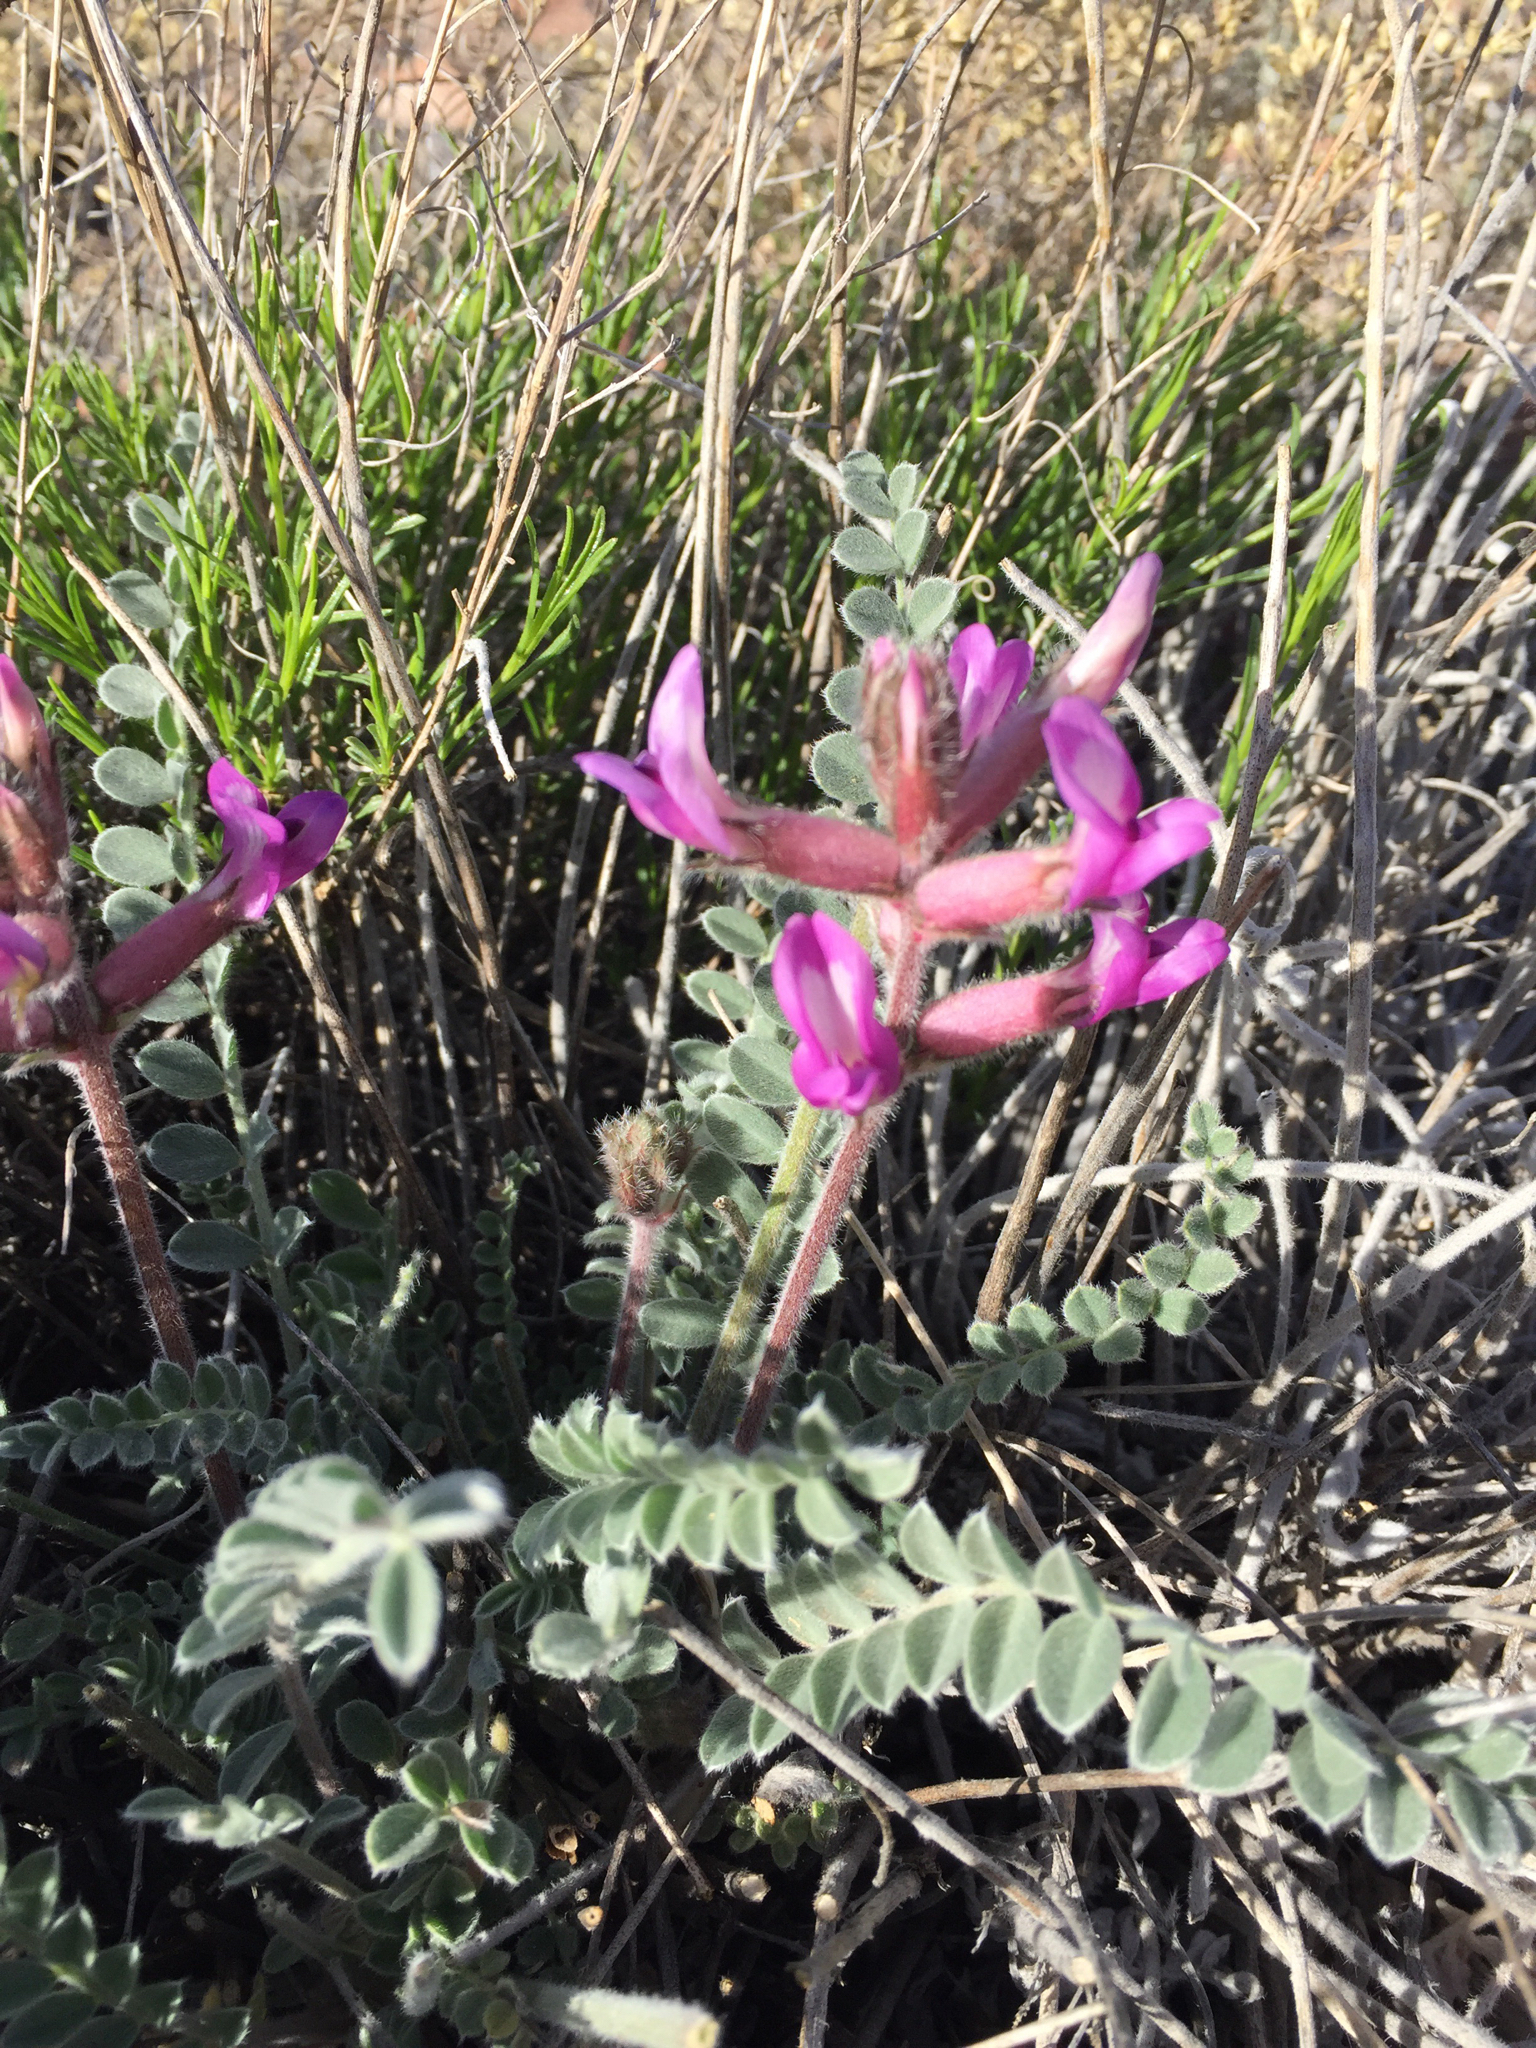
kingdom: Plantae
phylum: Tracheophyta
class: Magnoliopsida
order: Fabales
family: Fabaceae
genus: Astragalus
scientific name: Astragalus mollissimus
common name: Woolly locoweed
